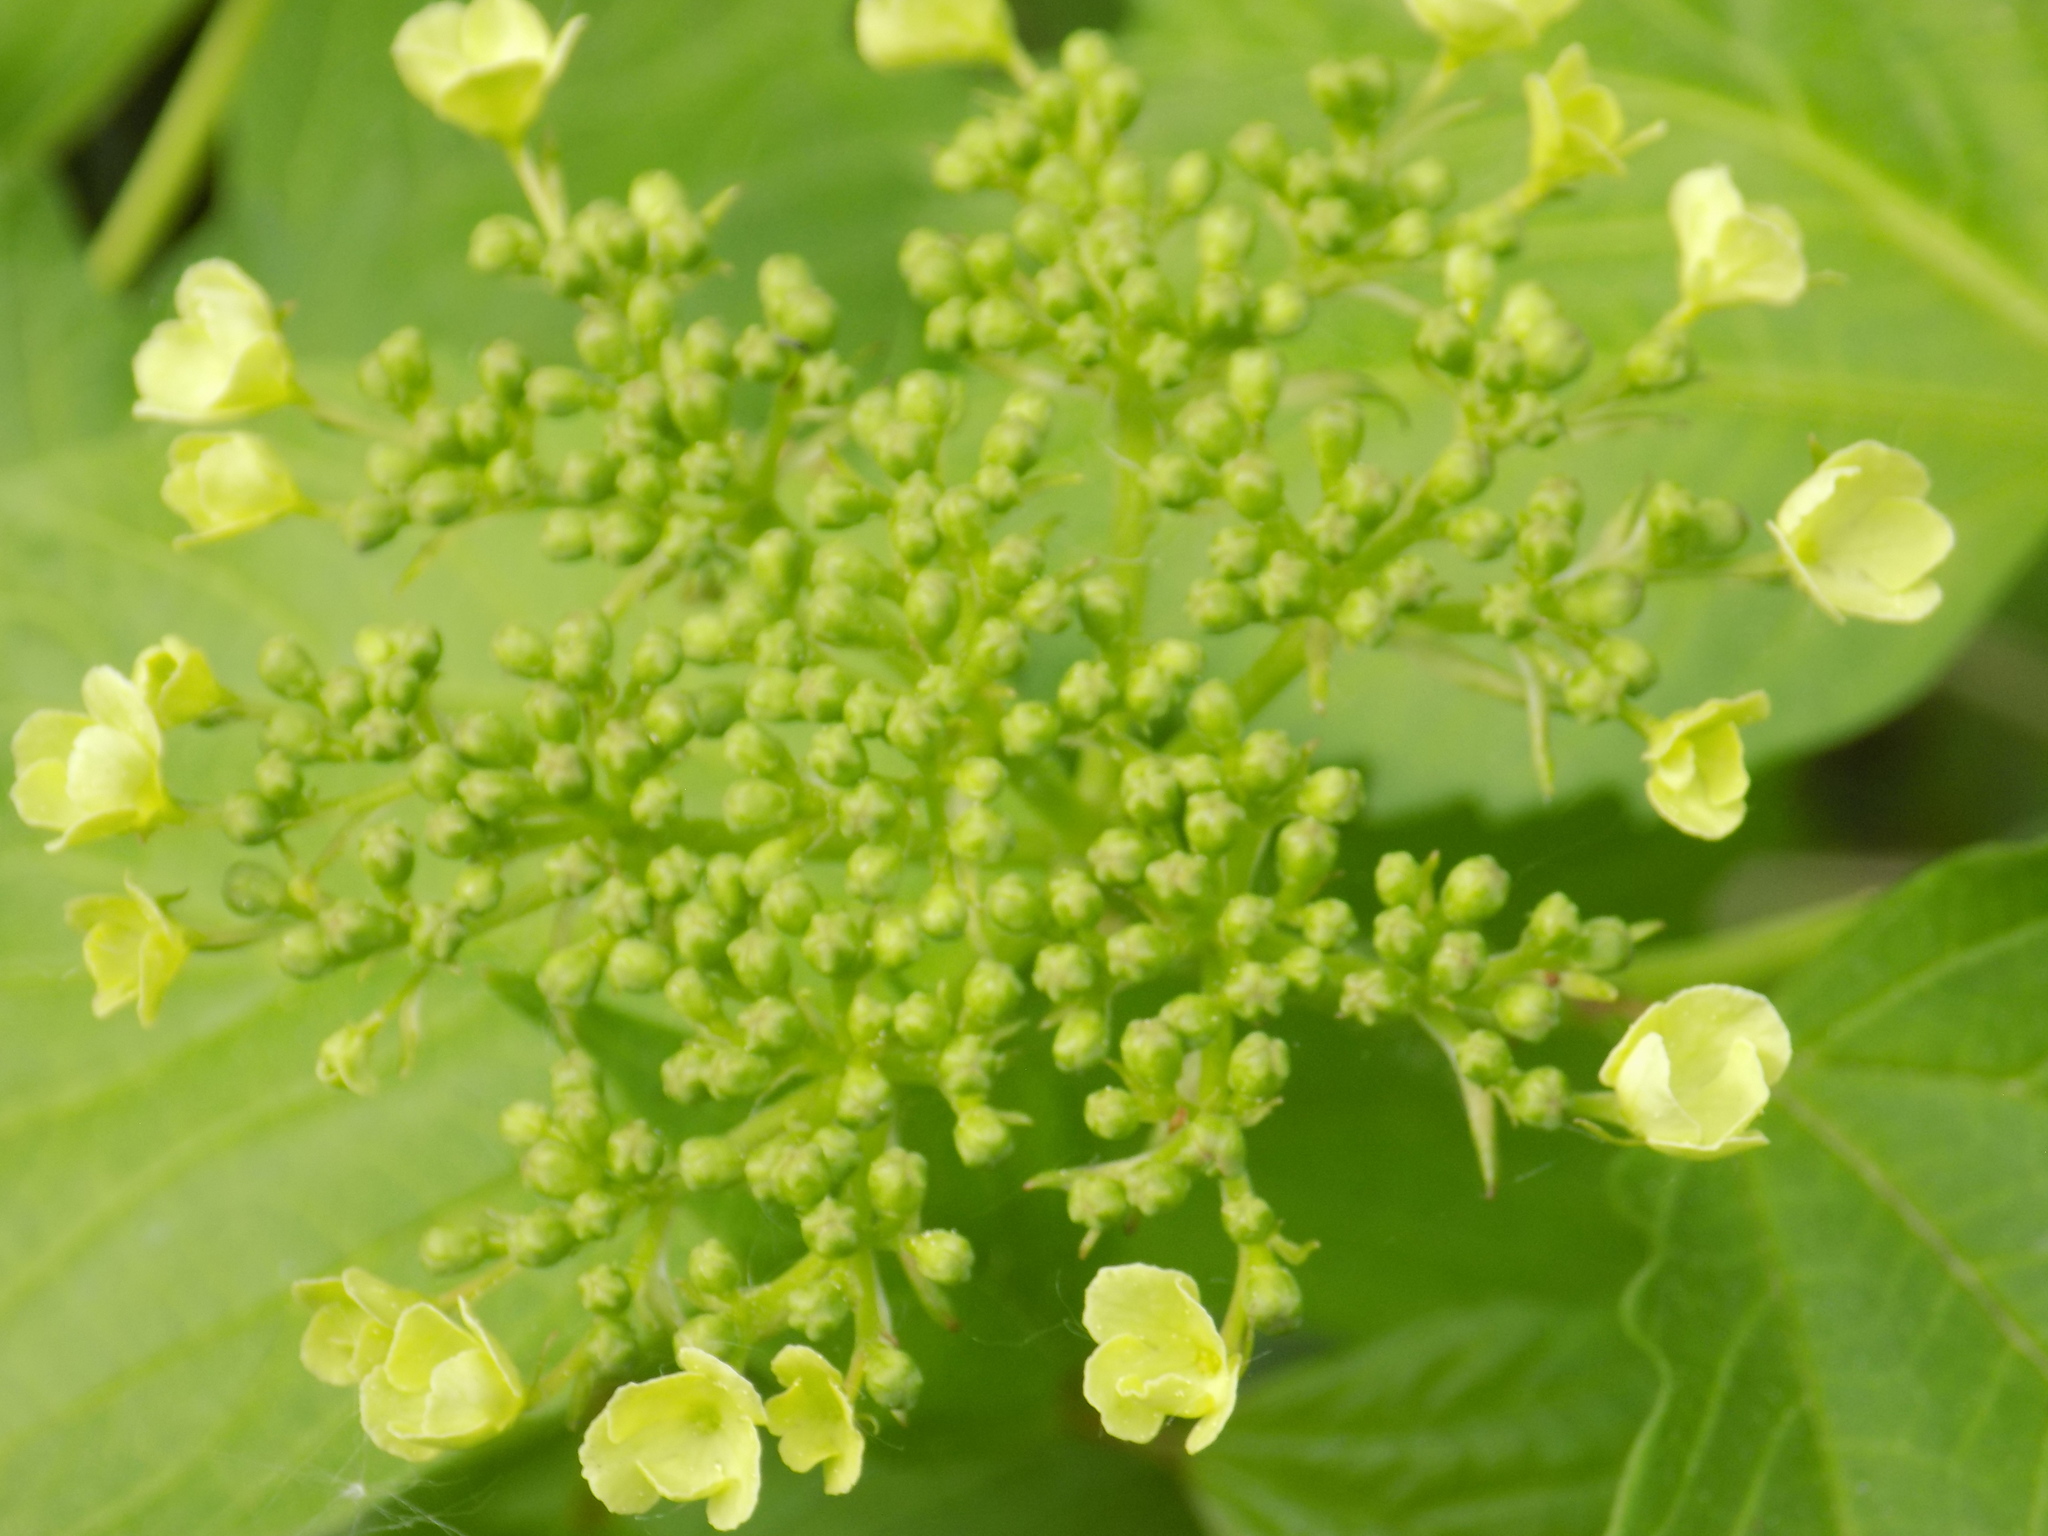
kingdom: Plantae
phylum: Tracheophyta
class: Magnoliopsida
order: Dipsacales
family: Viburnaceae
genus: Viburnum
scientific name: Viburnum opulus
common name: Guelder-rose
